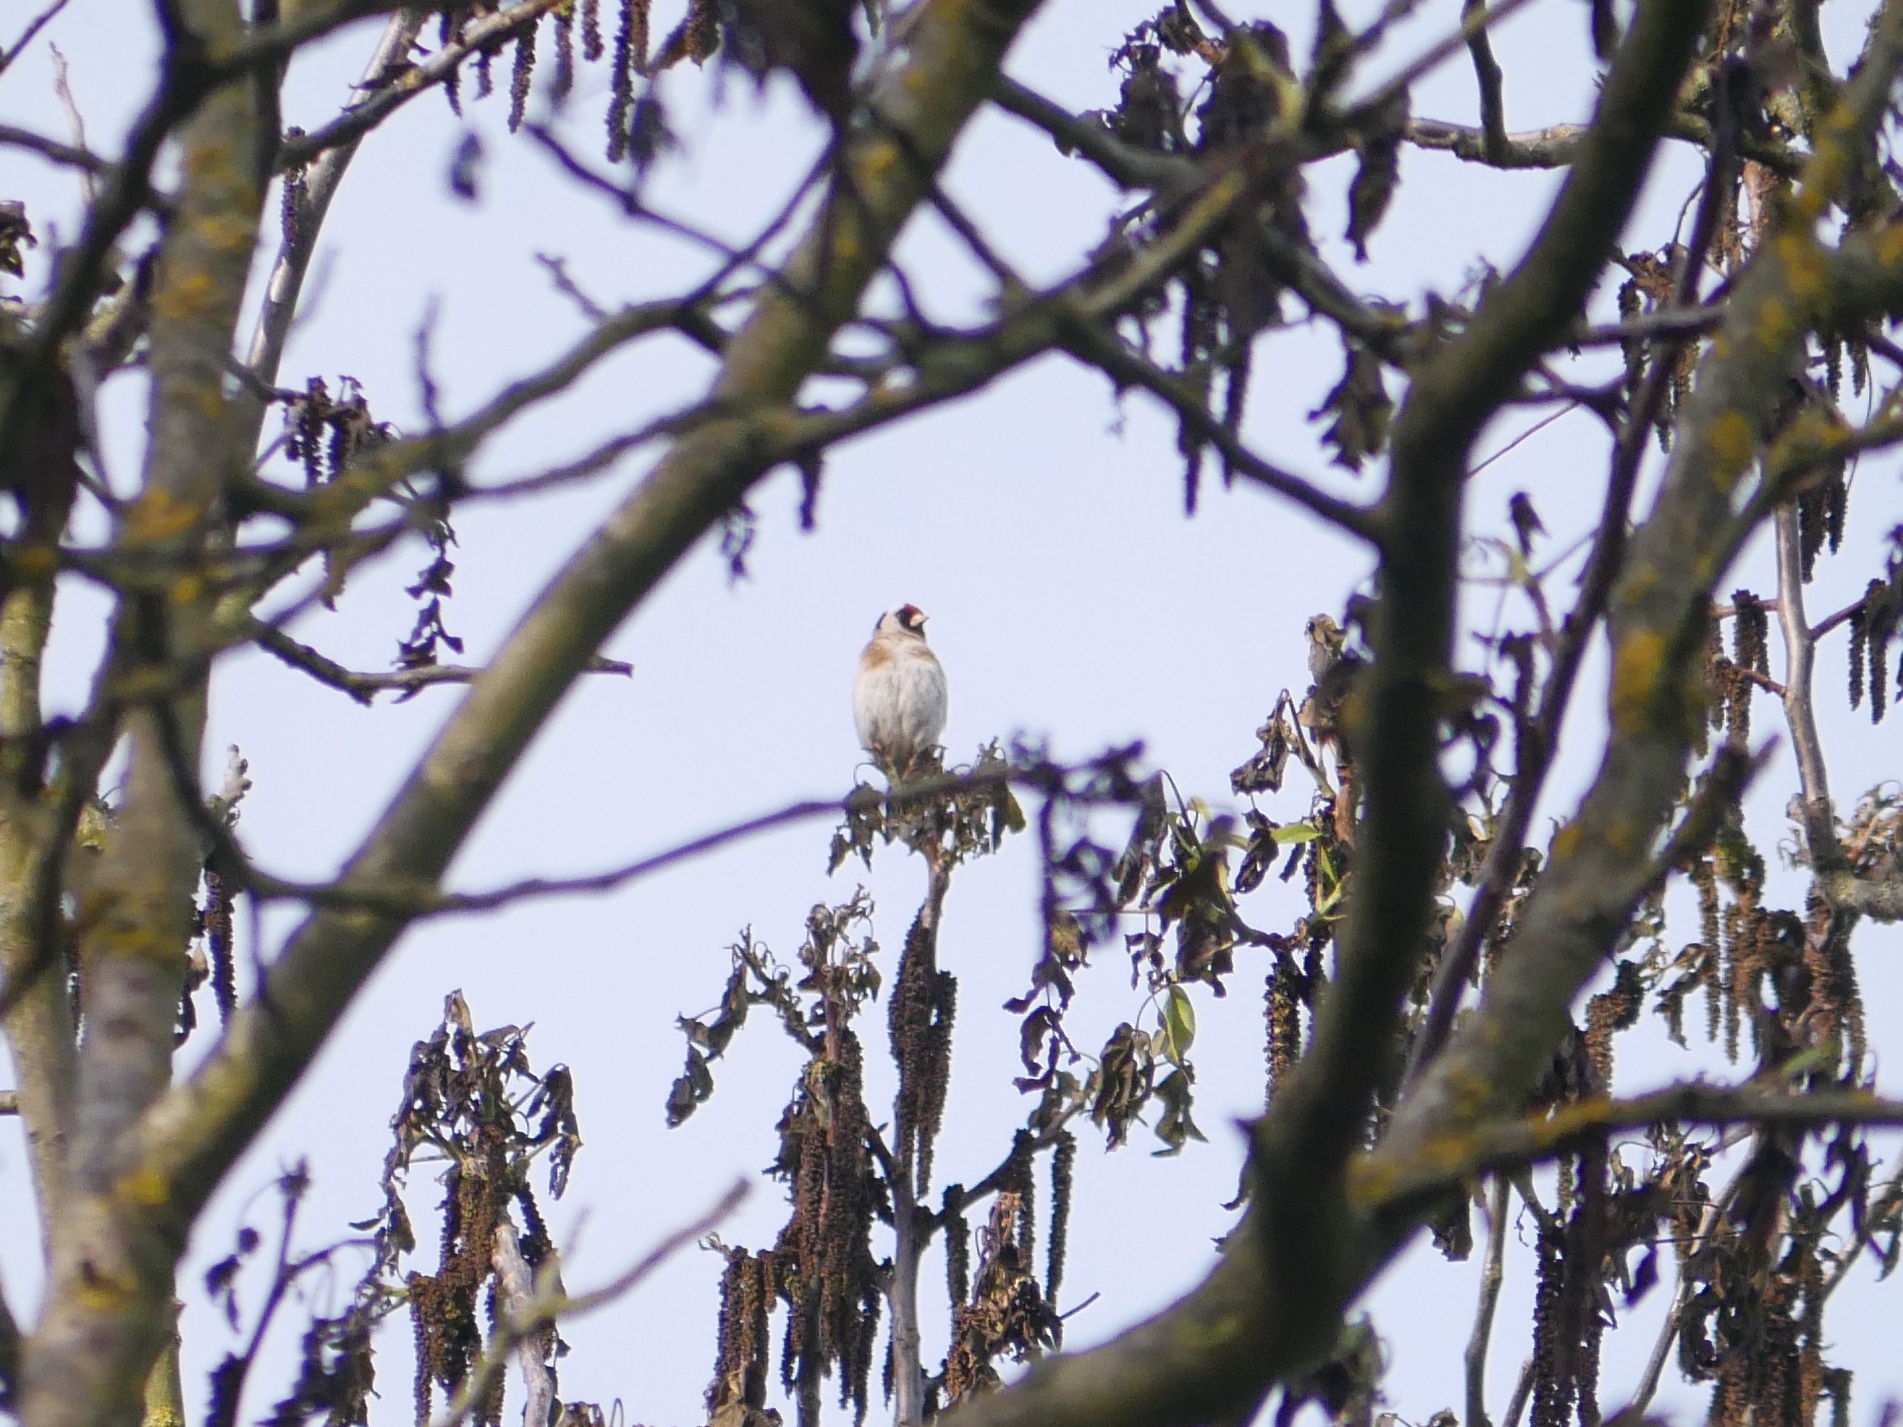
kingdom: Animalia
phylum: Chordata
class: Aves
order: Passeriformes
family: Fringillidae
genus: Carduelis
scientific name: Carduelis carduelis
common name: European goldfinch
